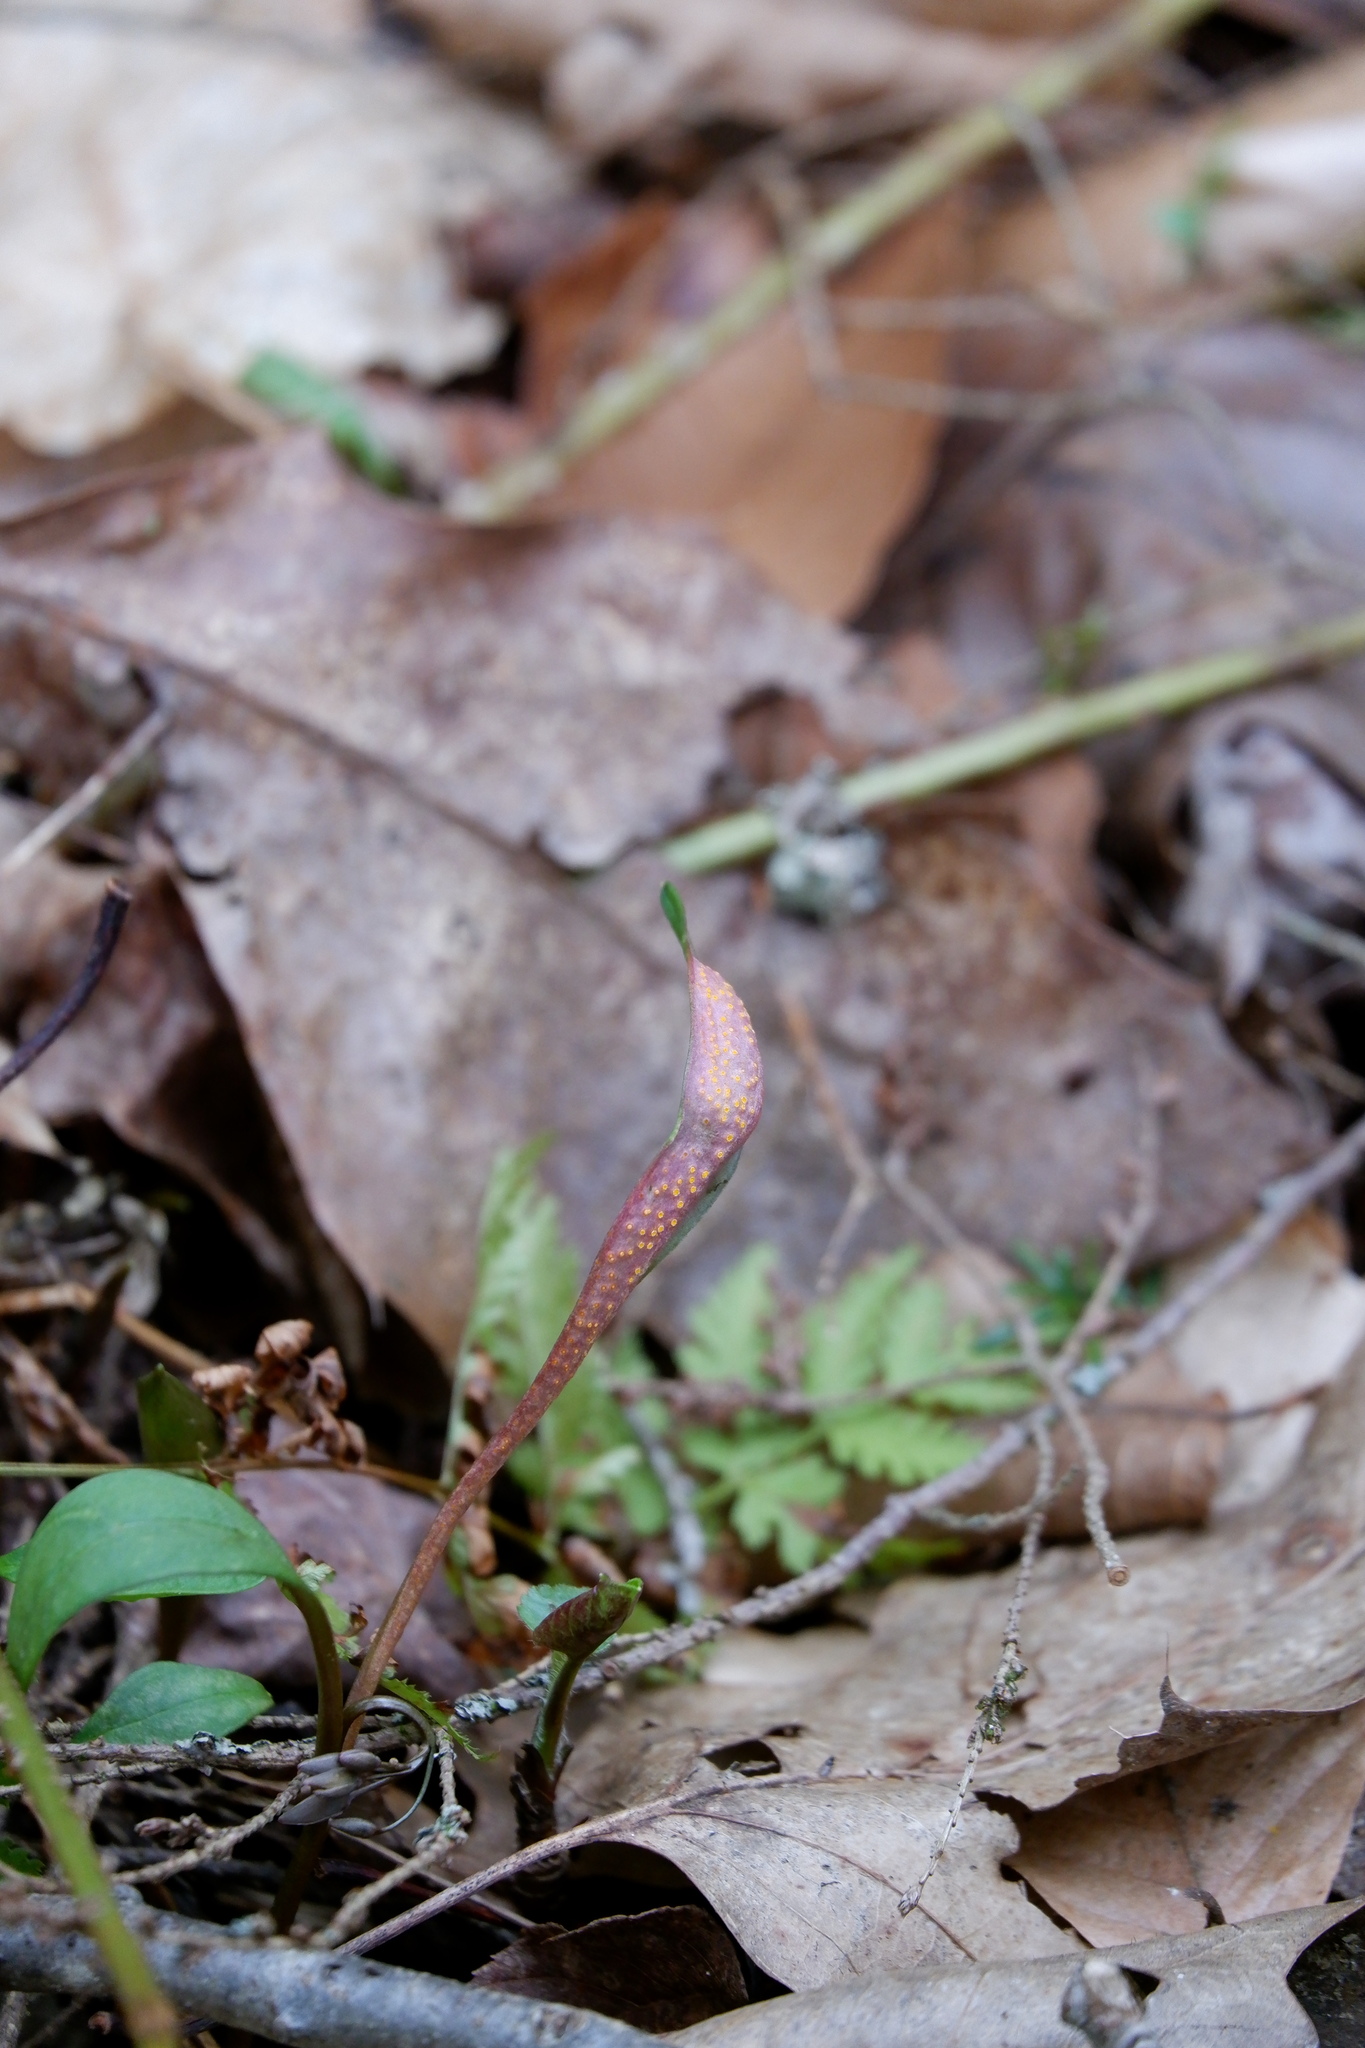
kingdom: Fungi
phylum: Basidiomycota
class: Pucciniomycetes
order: Pucciniales
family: Pucciniaceae
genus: Puccinia
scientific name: Puccinia mariae-wilsoniae
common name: Spring beauty rust
